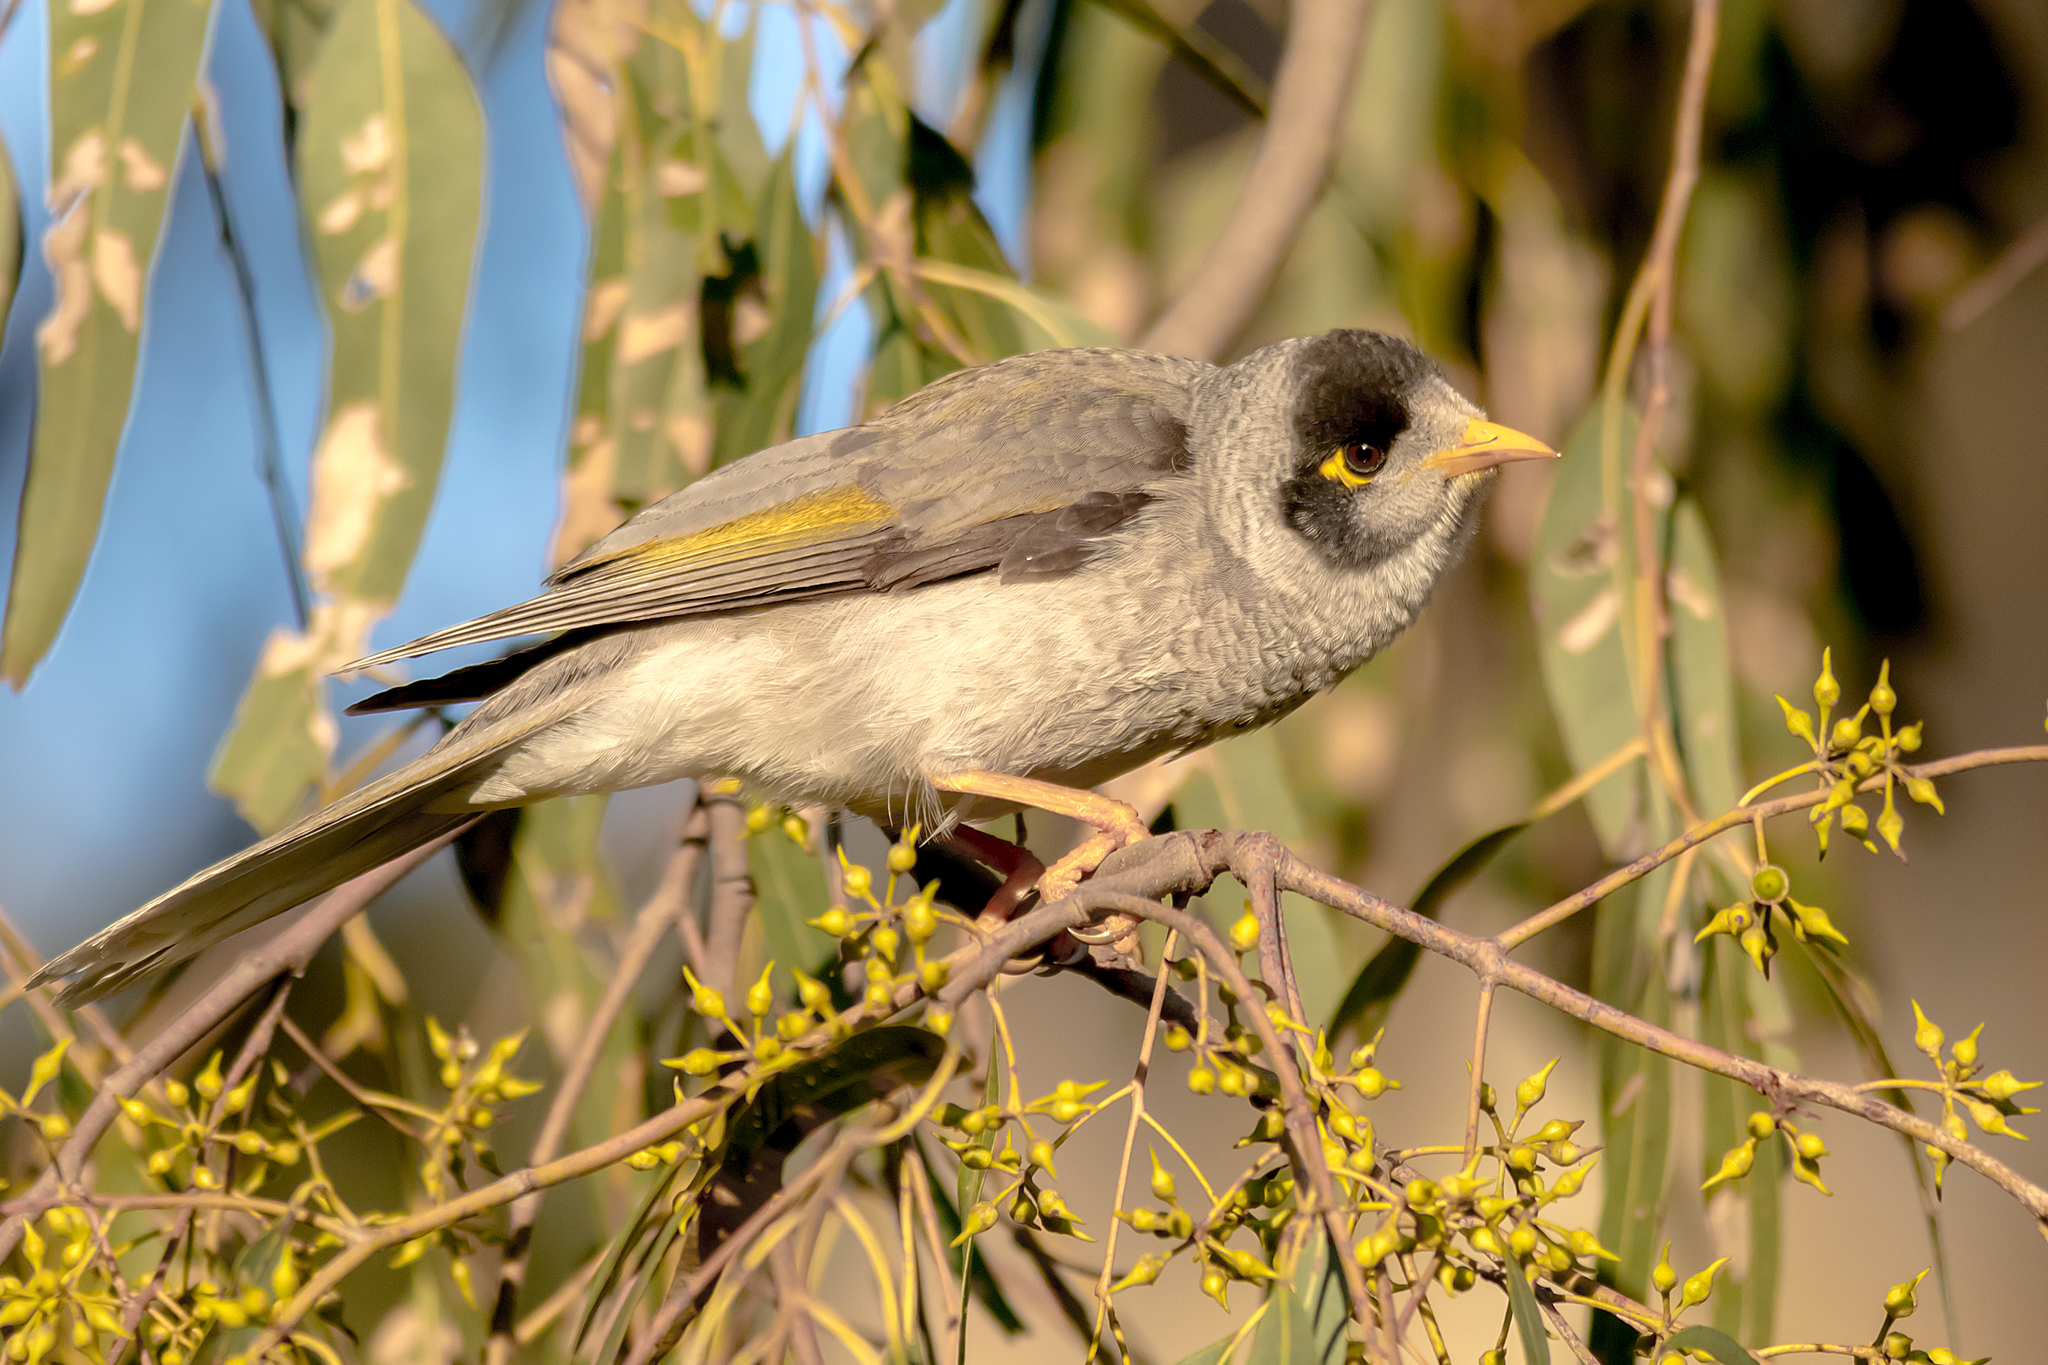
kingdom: Animalia
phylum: Chordata
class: Aves
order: Passeriformes
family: Meliphagidae
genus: Manorina
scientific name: Manorina melanocephala
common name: Noisy miner
